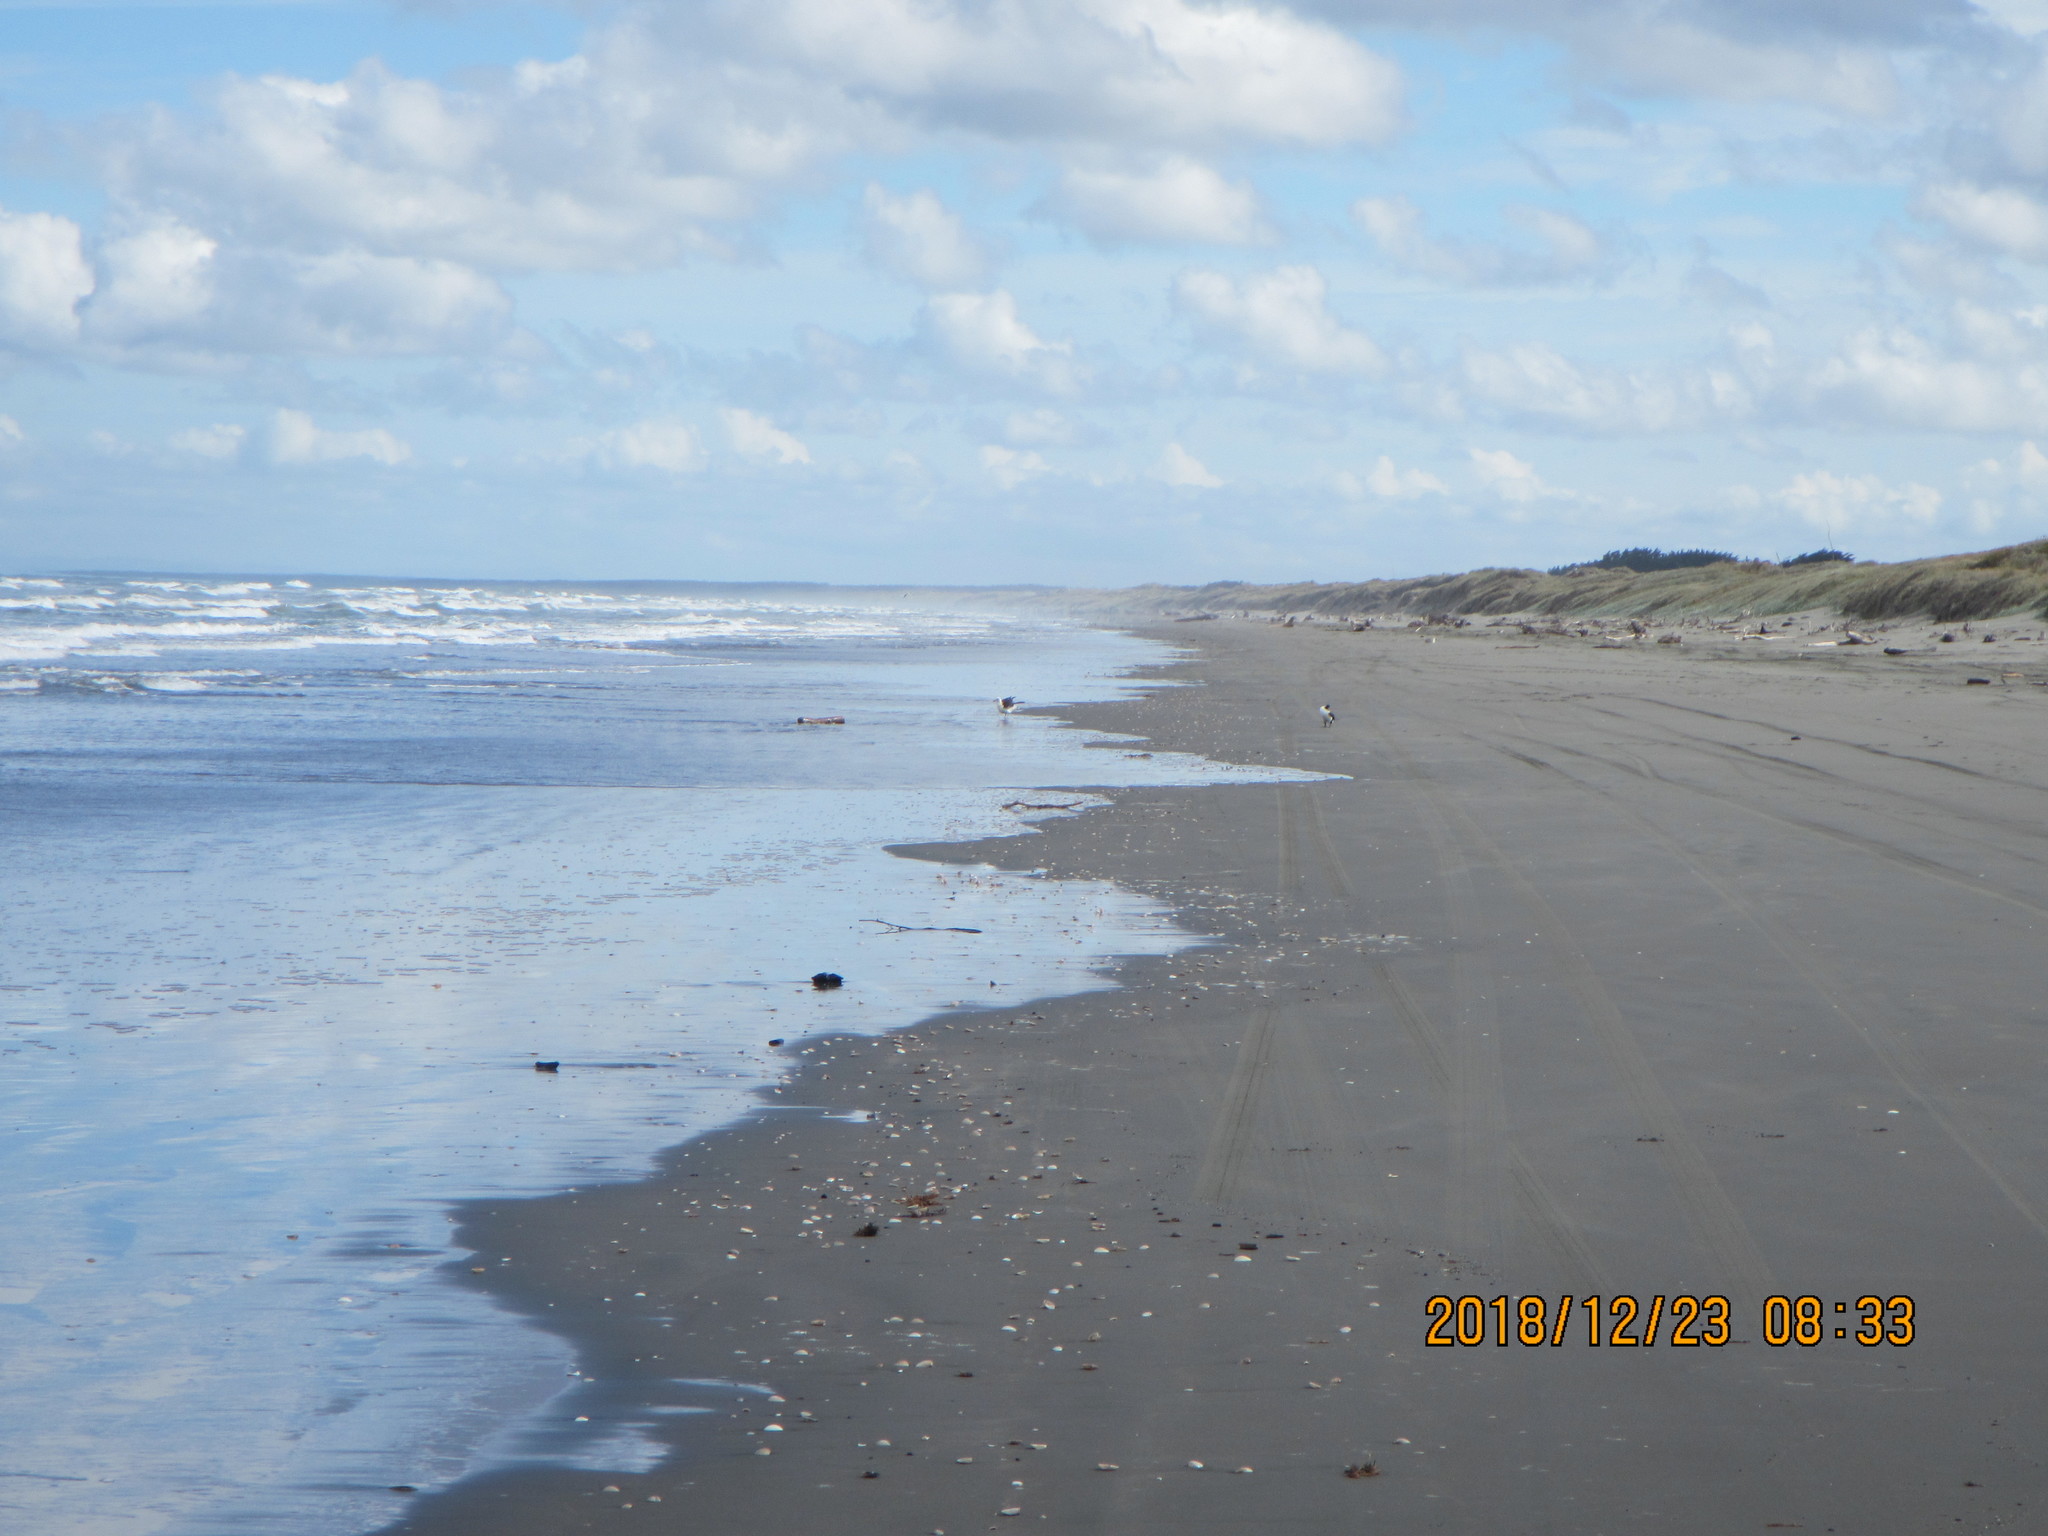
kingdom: Animalia
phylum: Chordata
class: Aves
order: Suliformes
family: Phalacrocoracidae
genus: Phalacrocorax
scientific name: Phalacrocorax varius
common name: Pied cormorant
